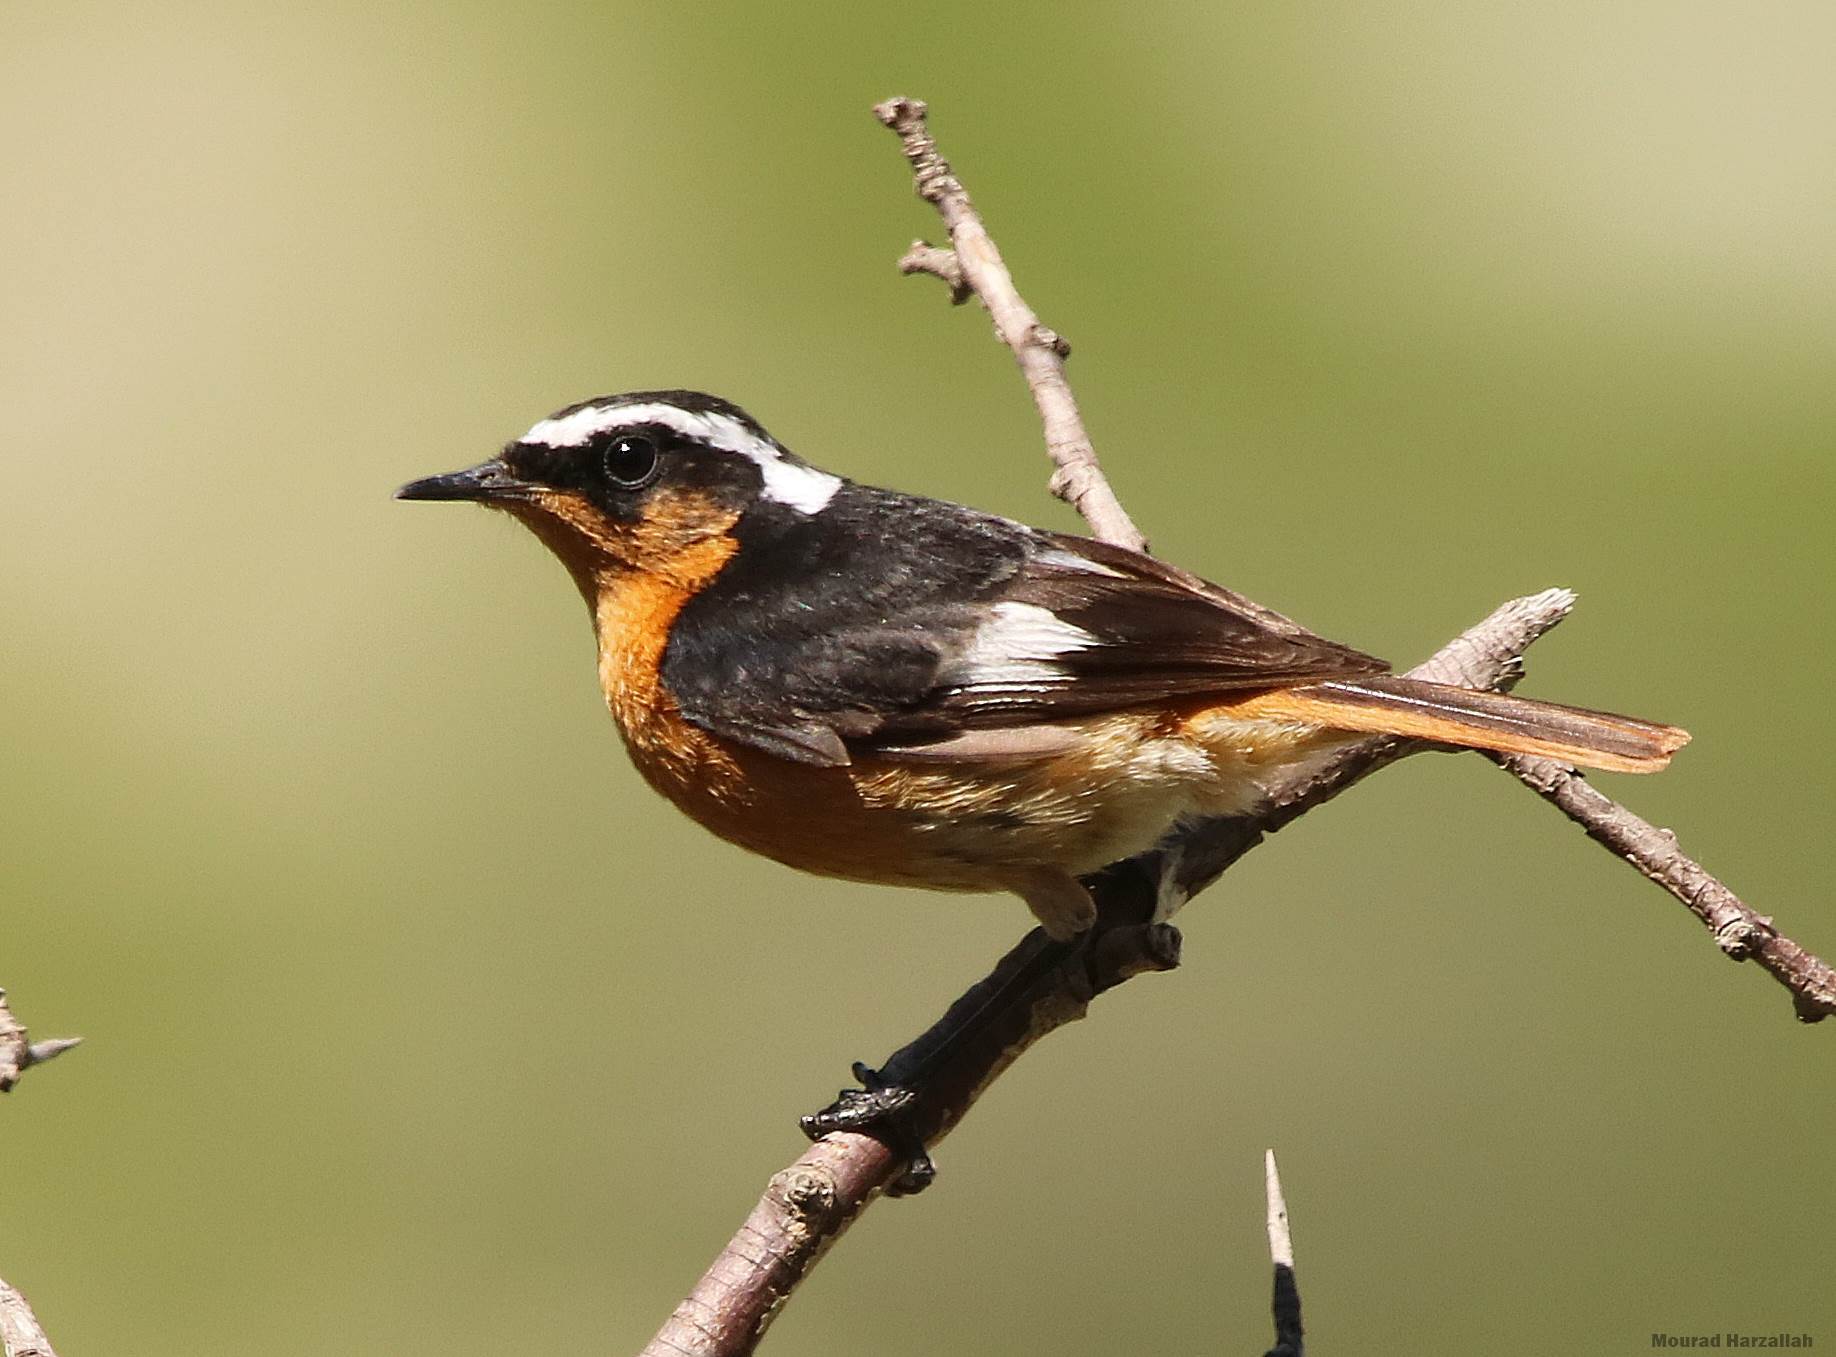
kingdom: Animalia
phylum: Chordata
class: Aves
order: Passeriformes
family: Muscicapidae
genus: Phoenicurus
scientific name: Phoenicurus moussieri
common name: Moussier's redstart
